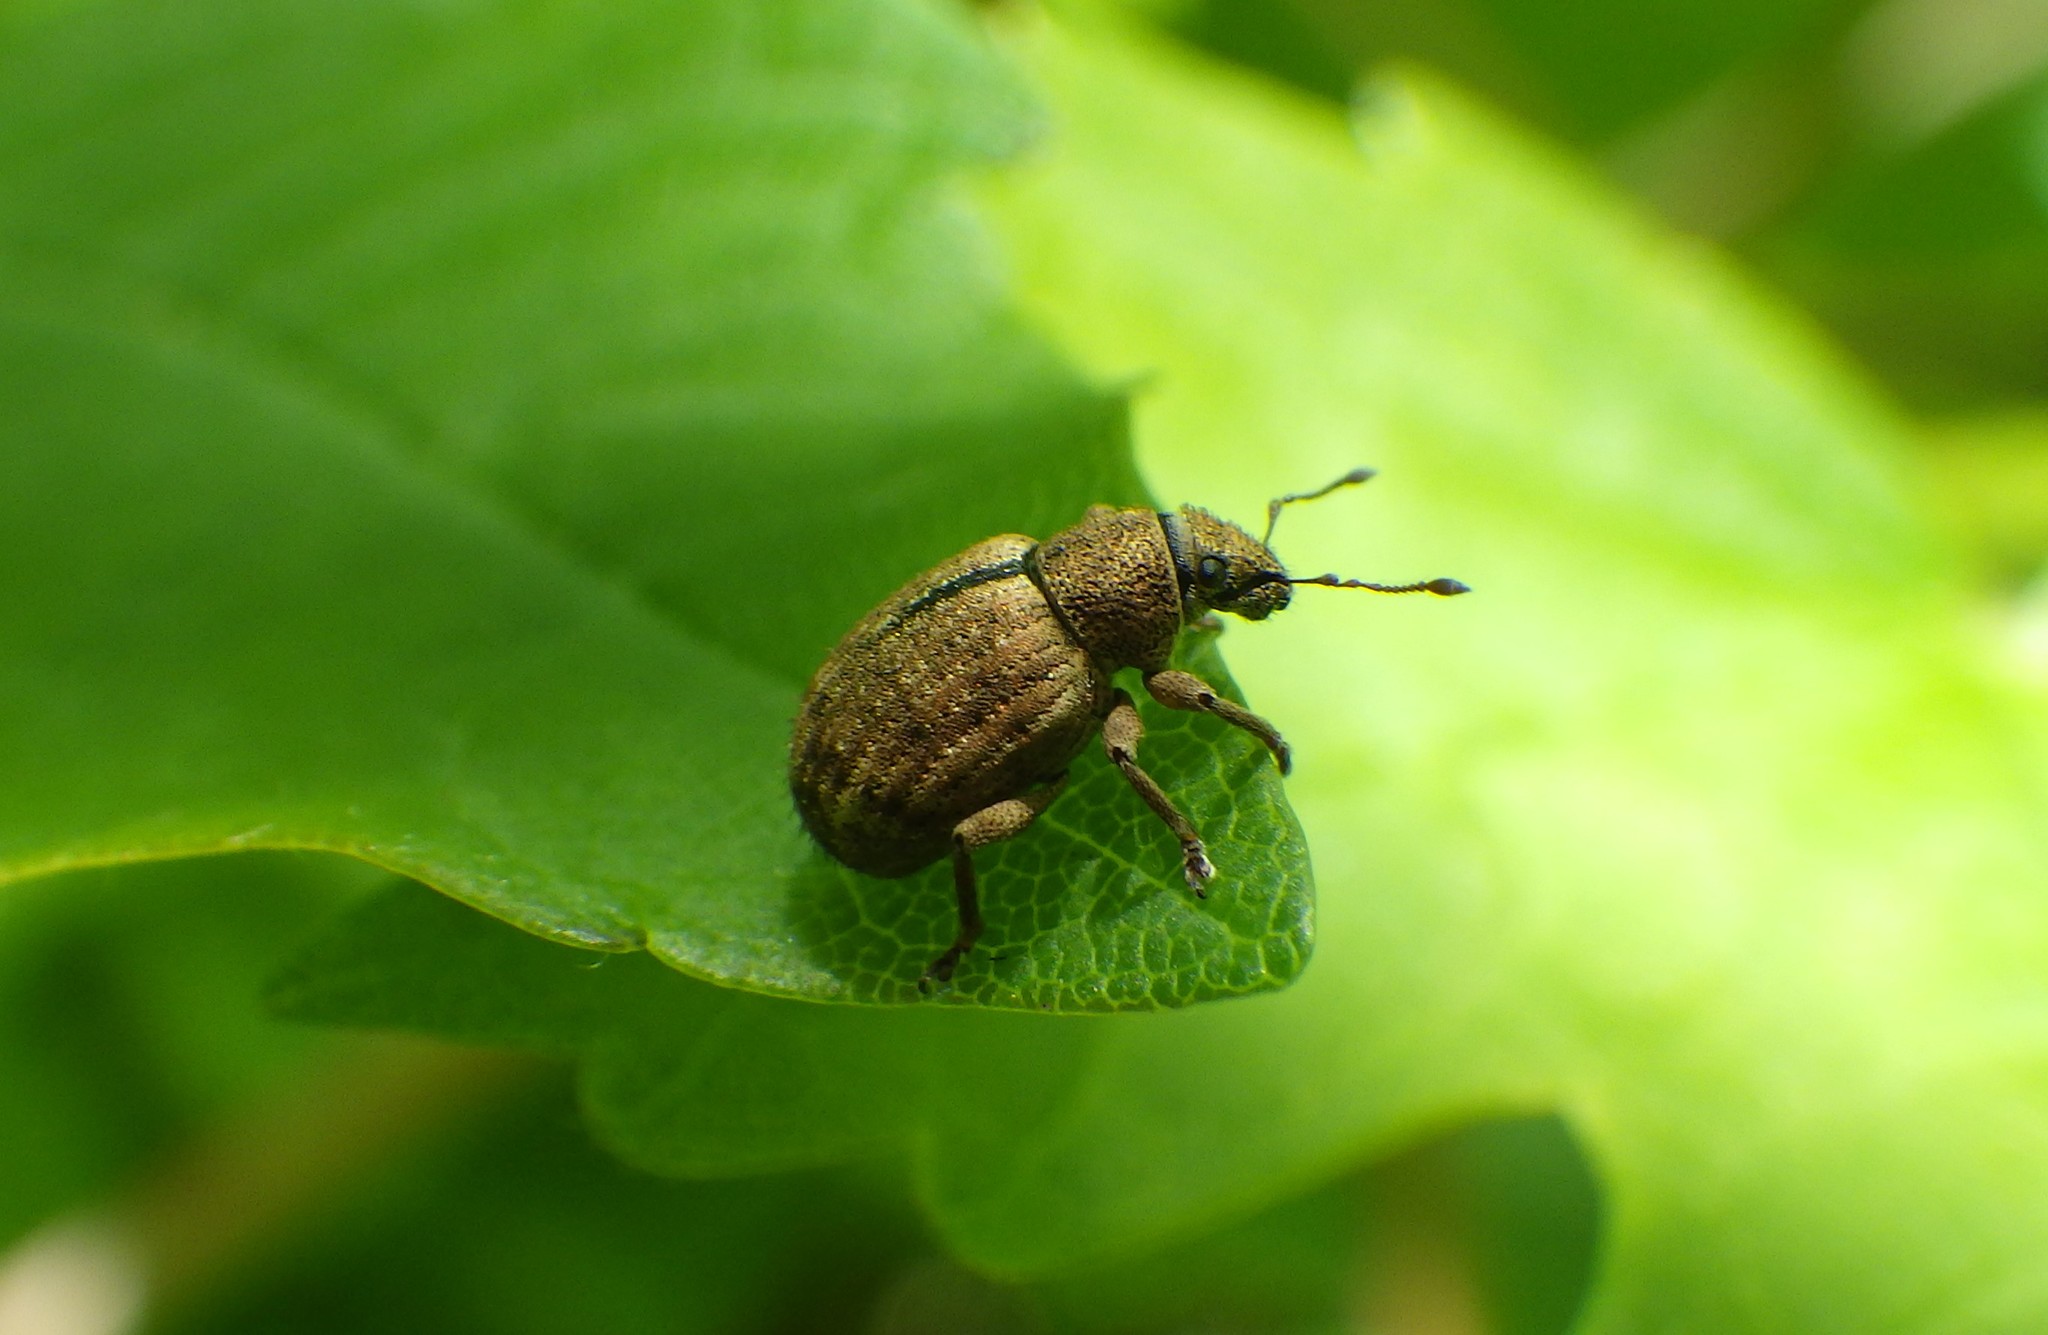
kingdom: Animalia
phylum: Arthropoda
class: Insecta
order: Coleoptera
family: Curculionidae
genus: Strophosoma
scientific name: Strophosoma melanogrammum
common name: Weevil
